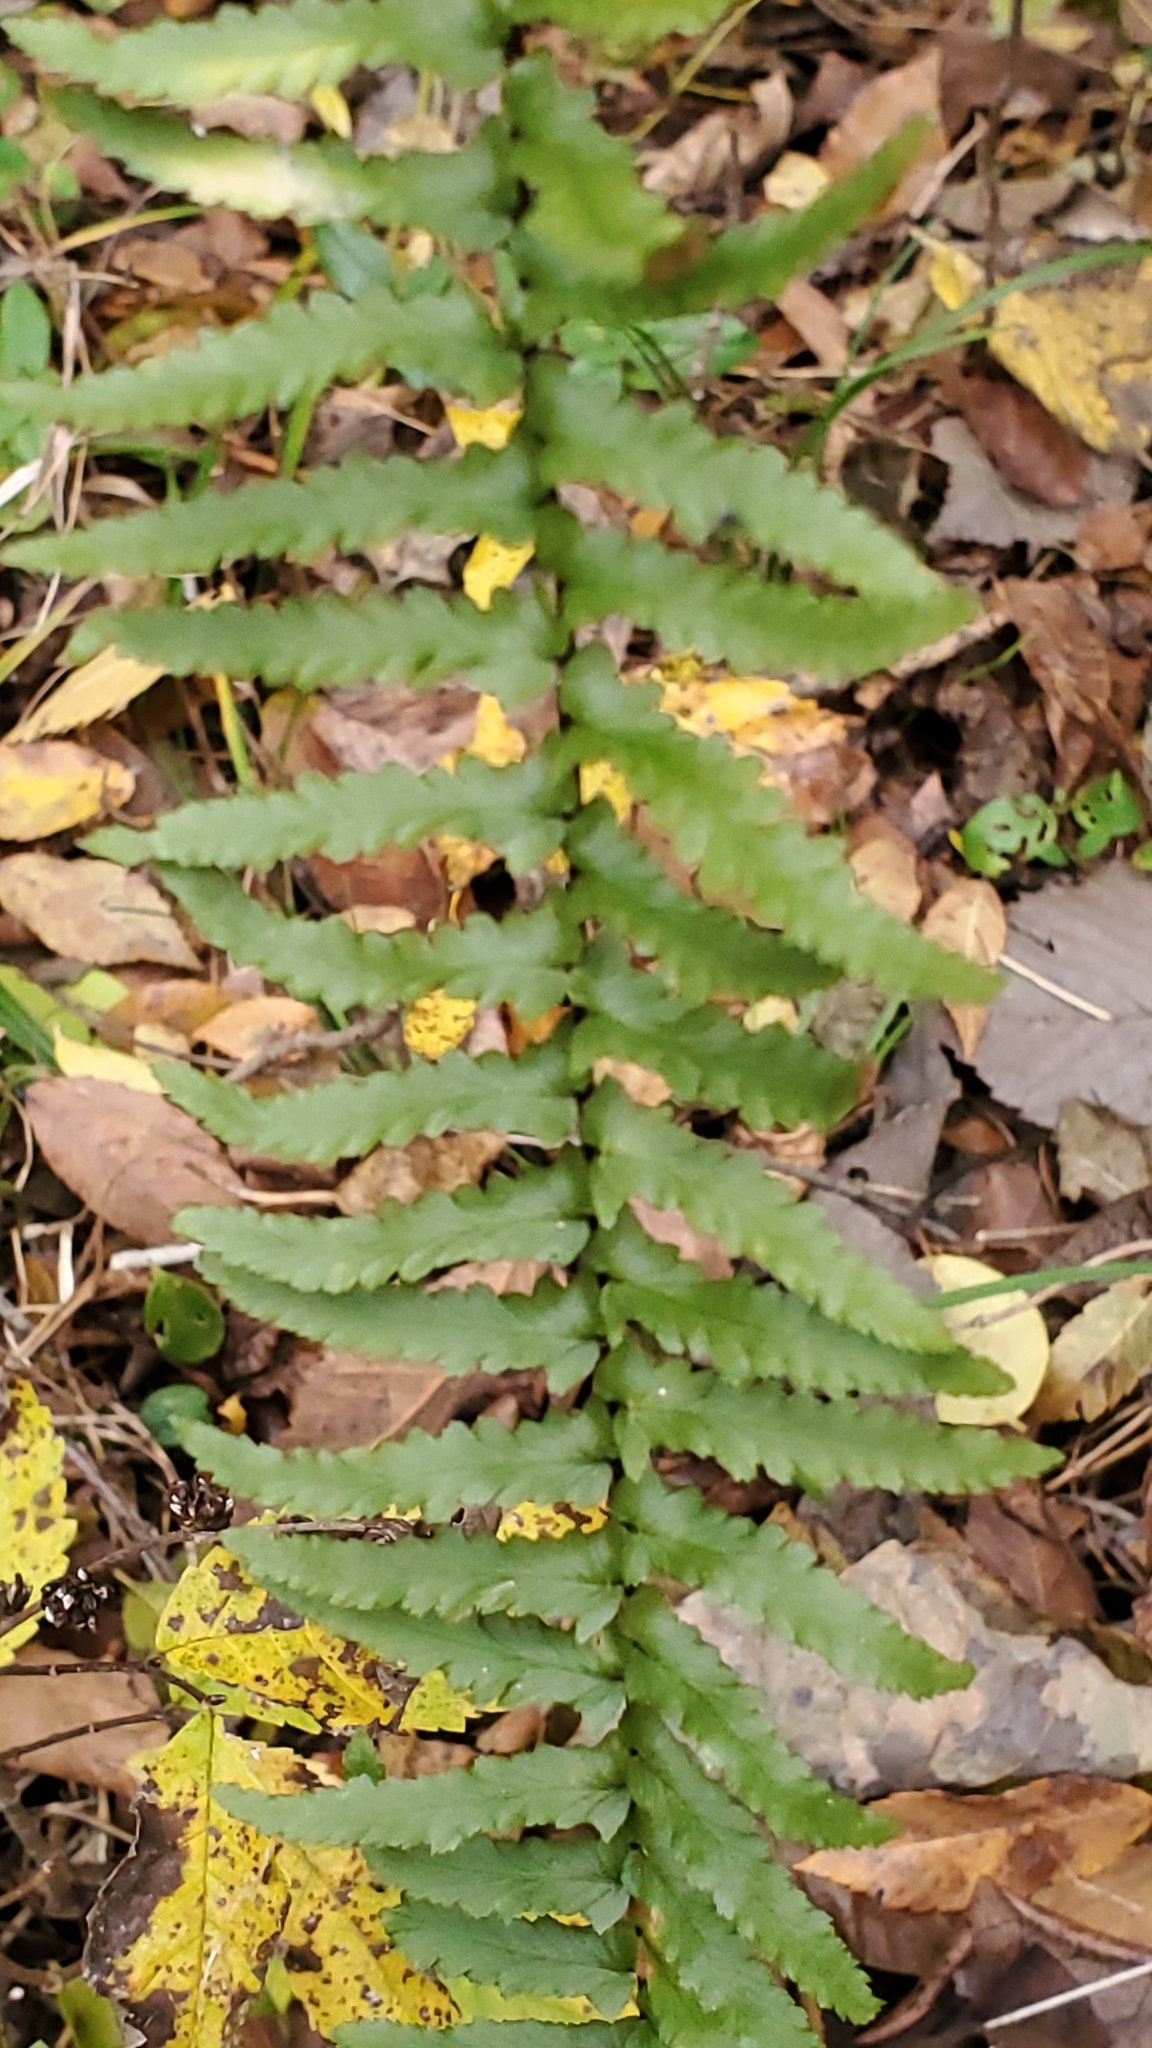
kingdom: Plantae
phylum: Tracheophyta
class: Polypodiopsida
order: Polypodiales
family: Aspleniaceae
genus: Asplenium
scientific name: Asplenium platyneuron
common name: Ebony spleenwort
